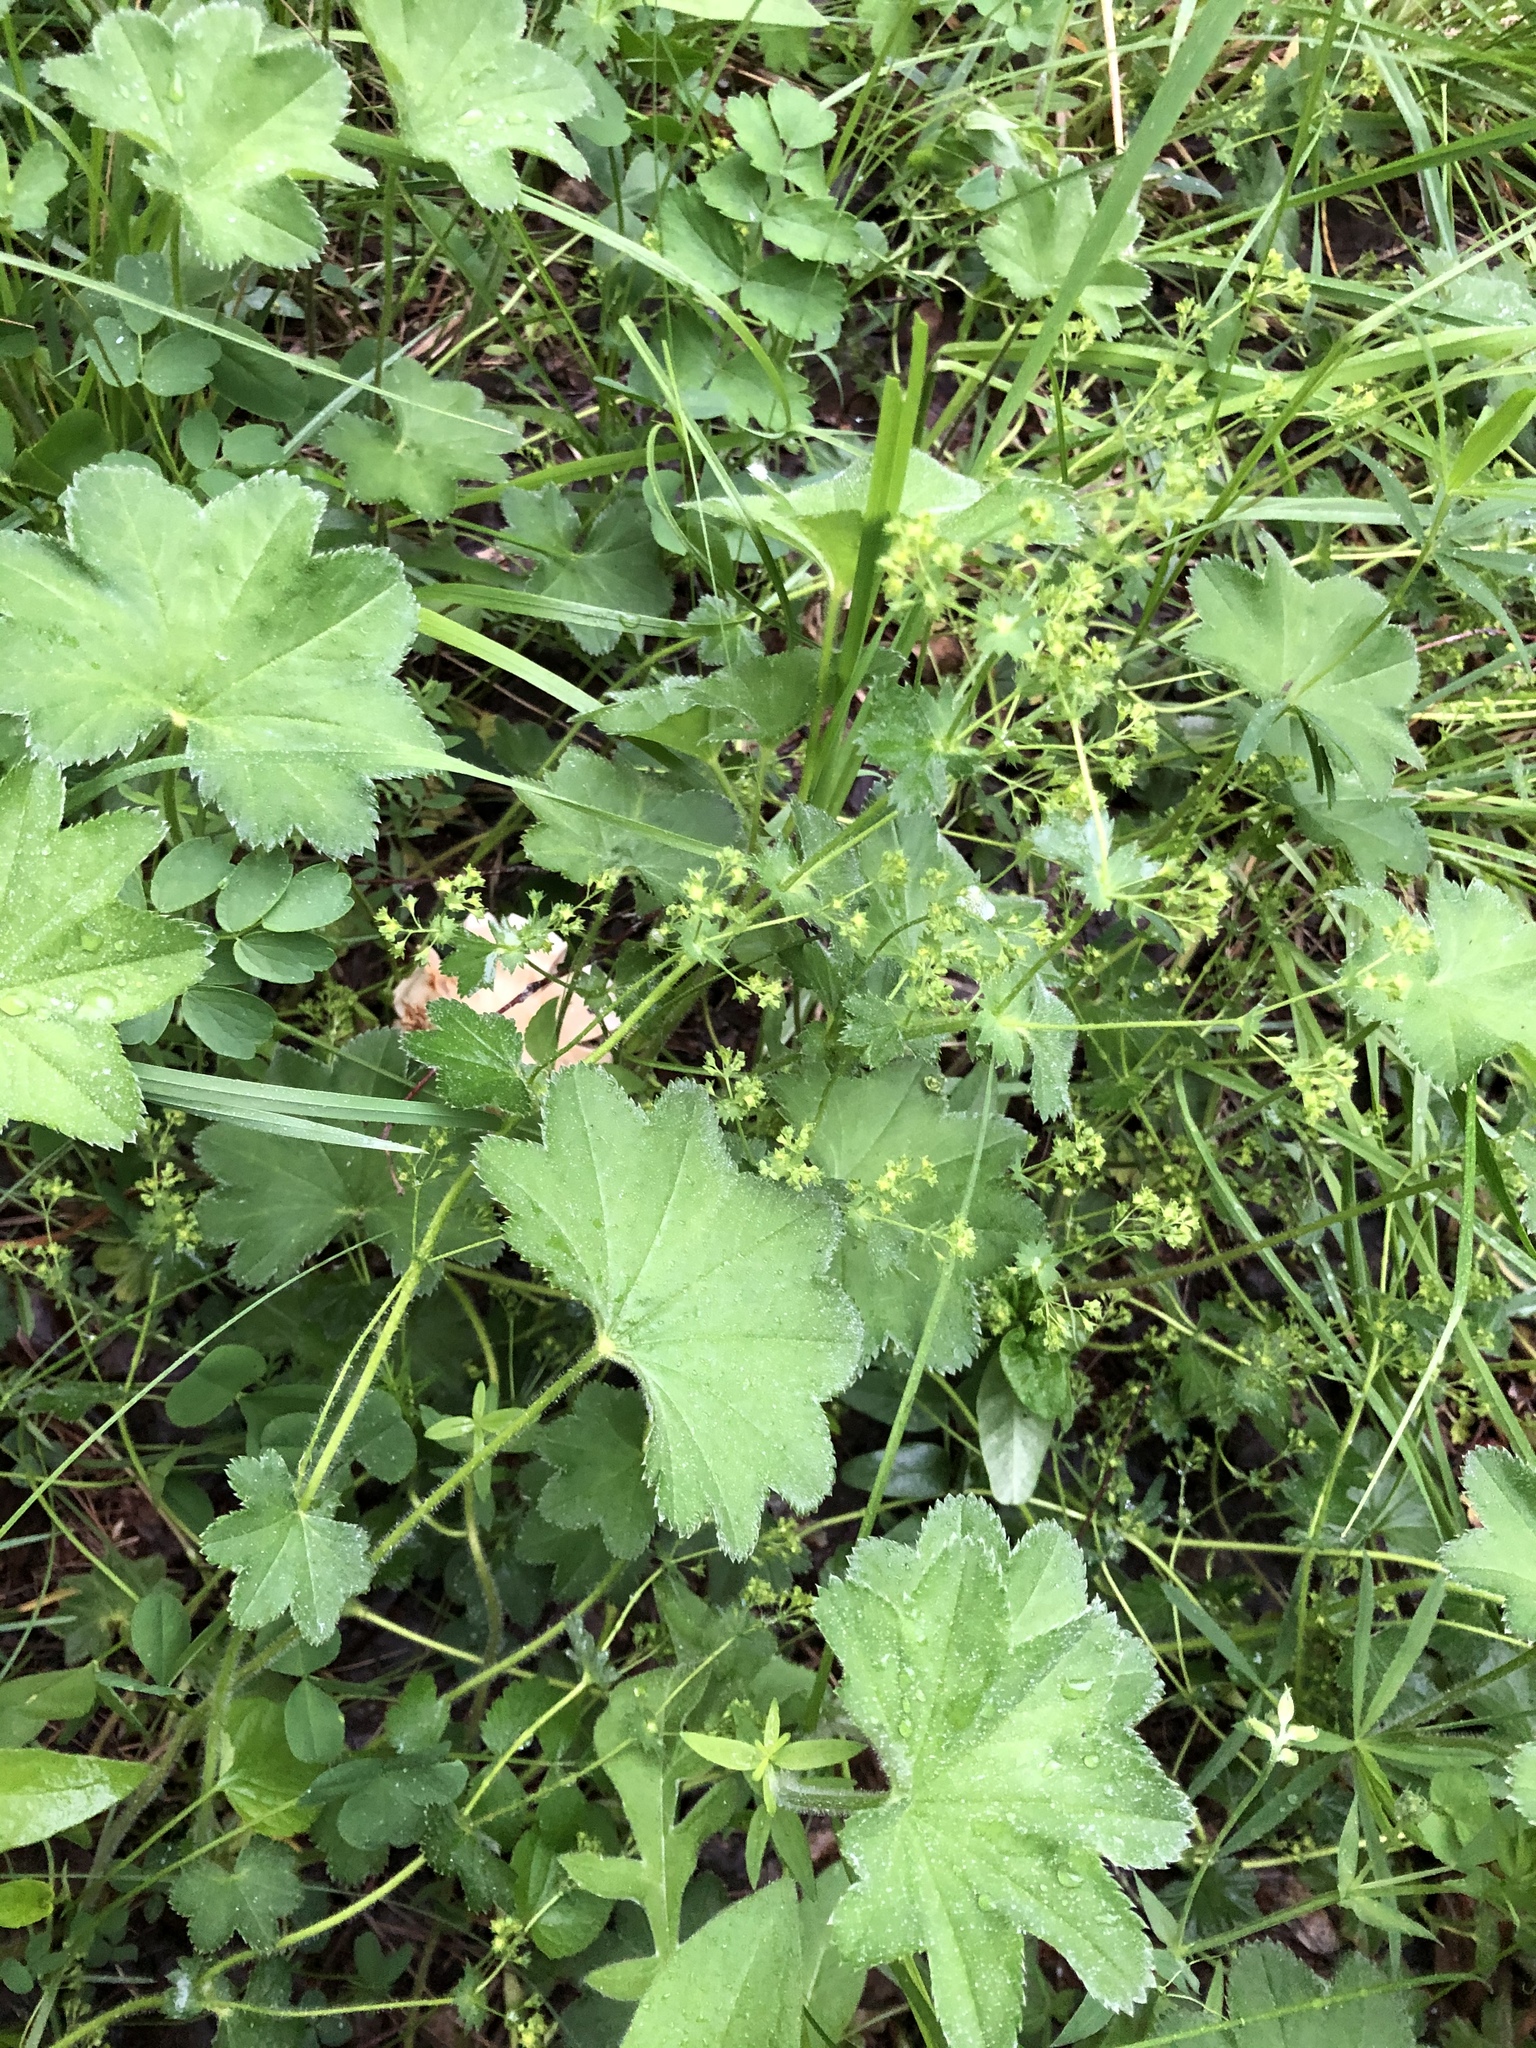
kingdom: Plantae
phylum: Tracheophyta
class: Magnoliopsida
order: Rosales
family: Rosaceae
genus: Alchemilla
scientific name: Alchemilla micans
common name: Gleaming lady's mantle
